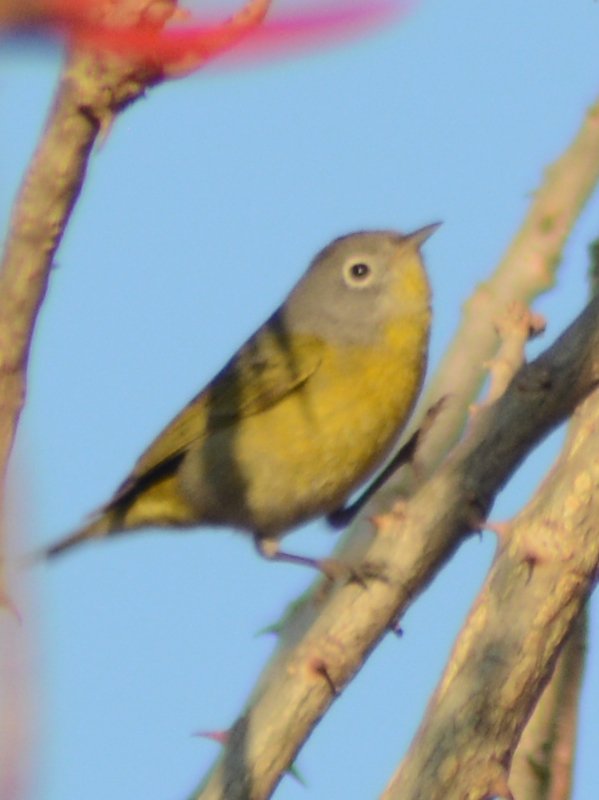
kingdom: Animalia
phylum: Chordata
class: Aves
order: Passeriformes
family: Parulidae
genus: Leiothlypis
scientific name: Leiothlypis ruficapilla
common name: Nashville warbler
